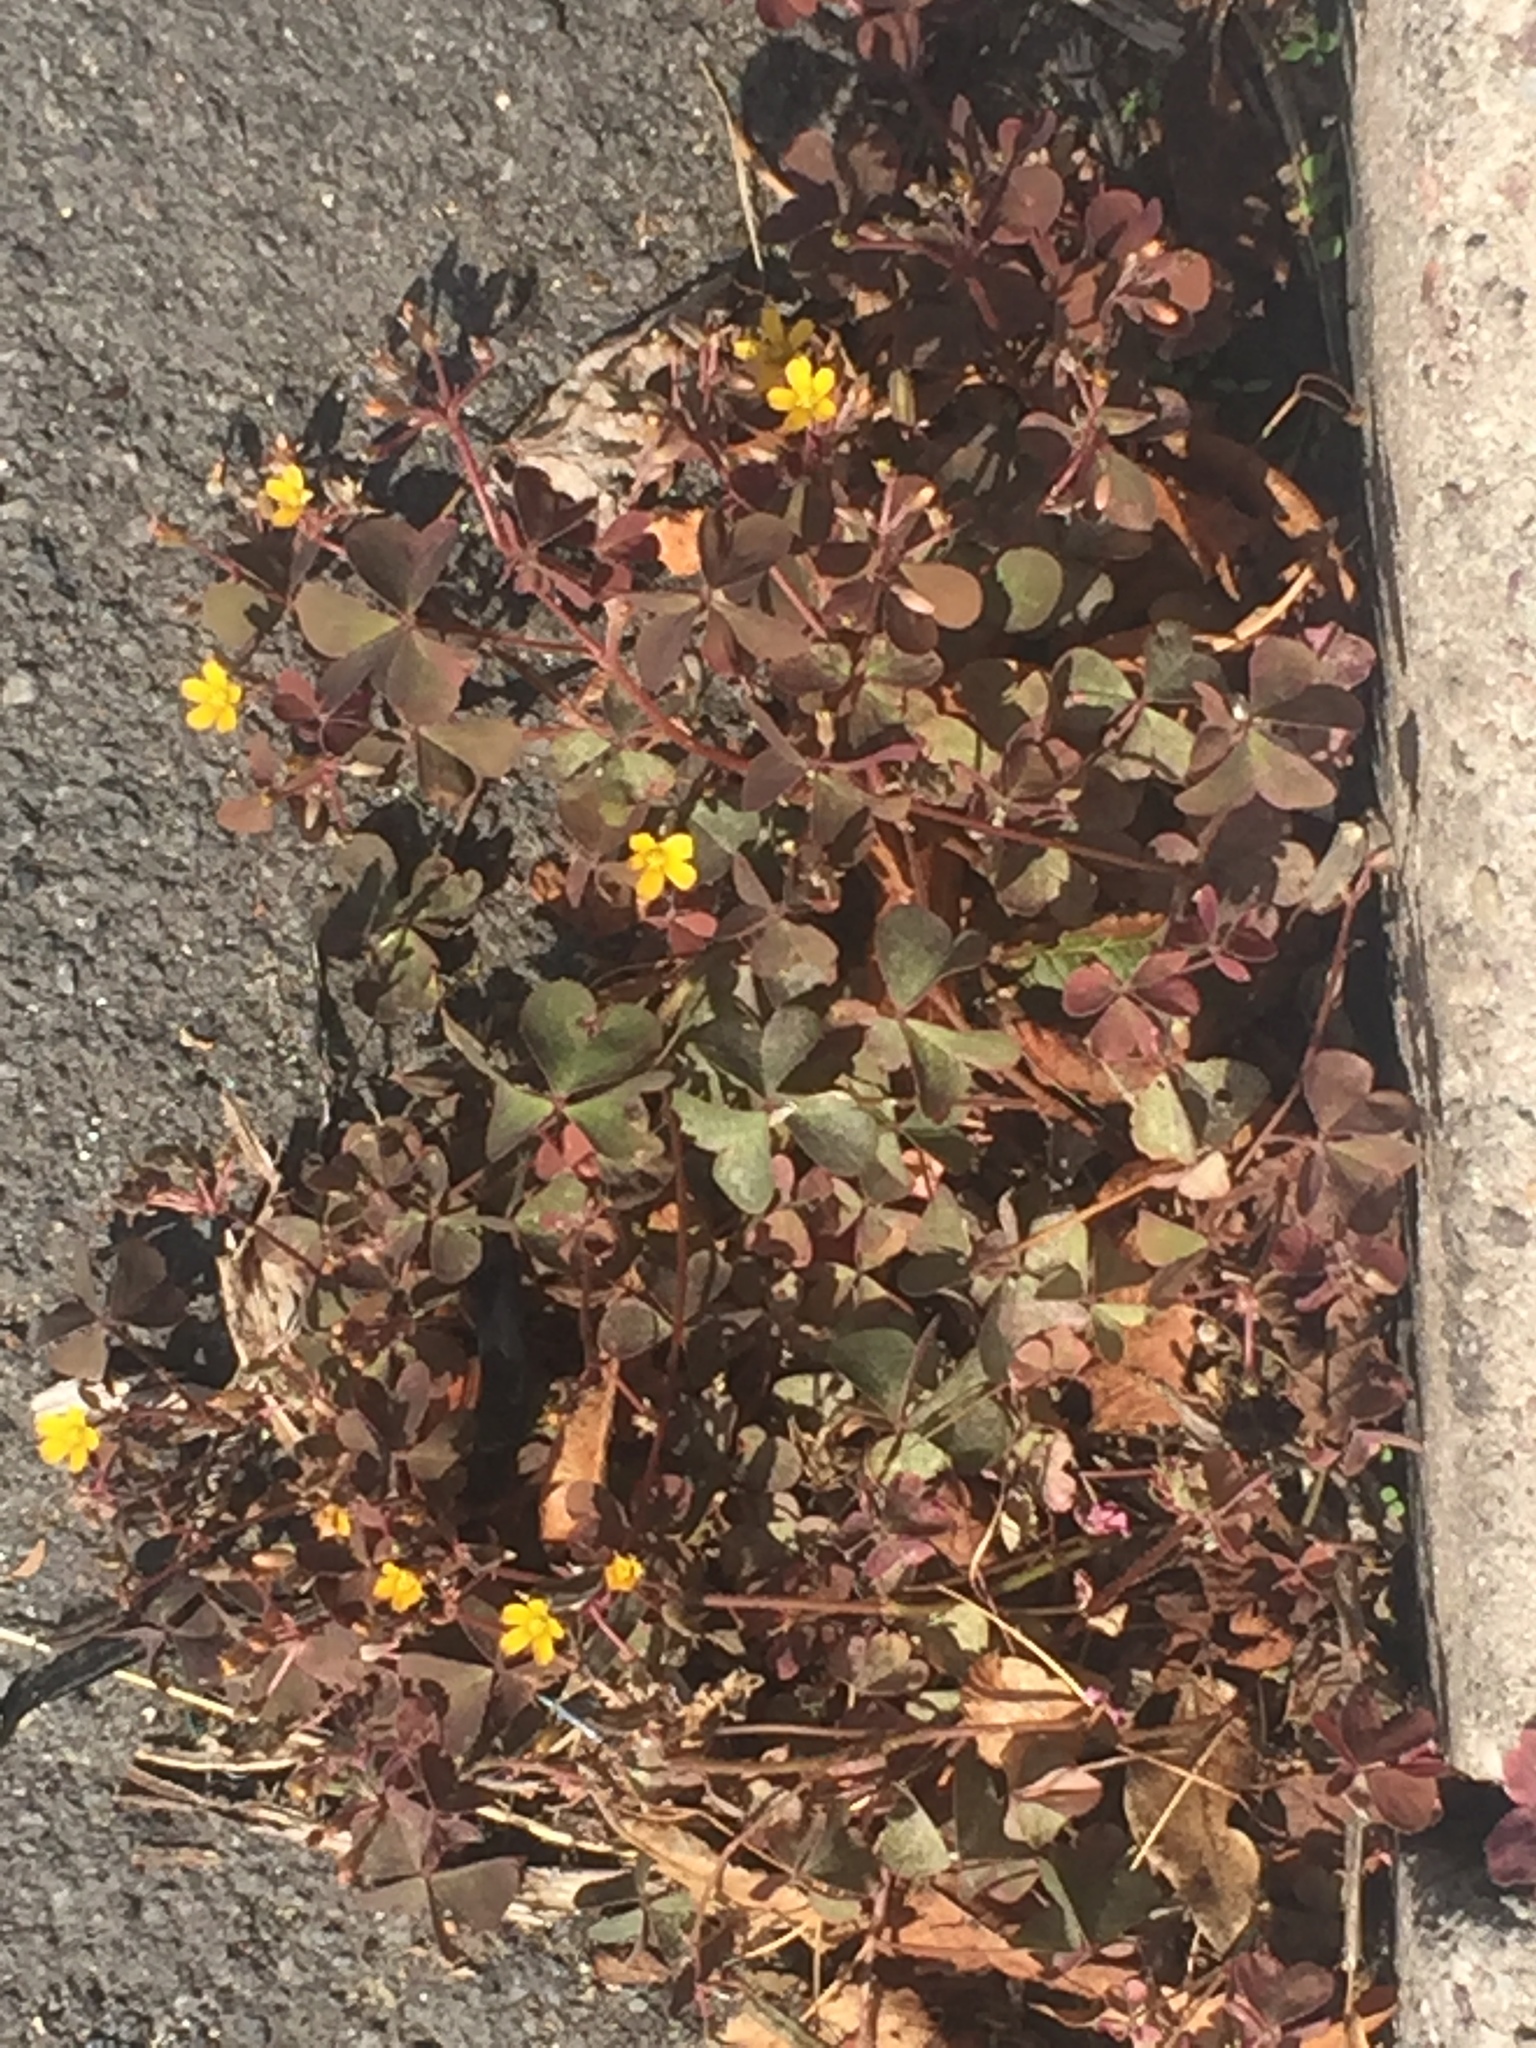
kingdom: Plantae
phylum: Tracheophyta
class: Magnoliopsida
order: Oxalidales
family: Oxalidaceae
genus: Oxalis
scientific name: Oxalis corniculata
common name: Procumbent yellow-sorrel
